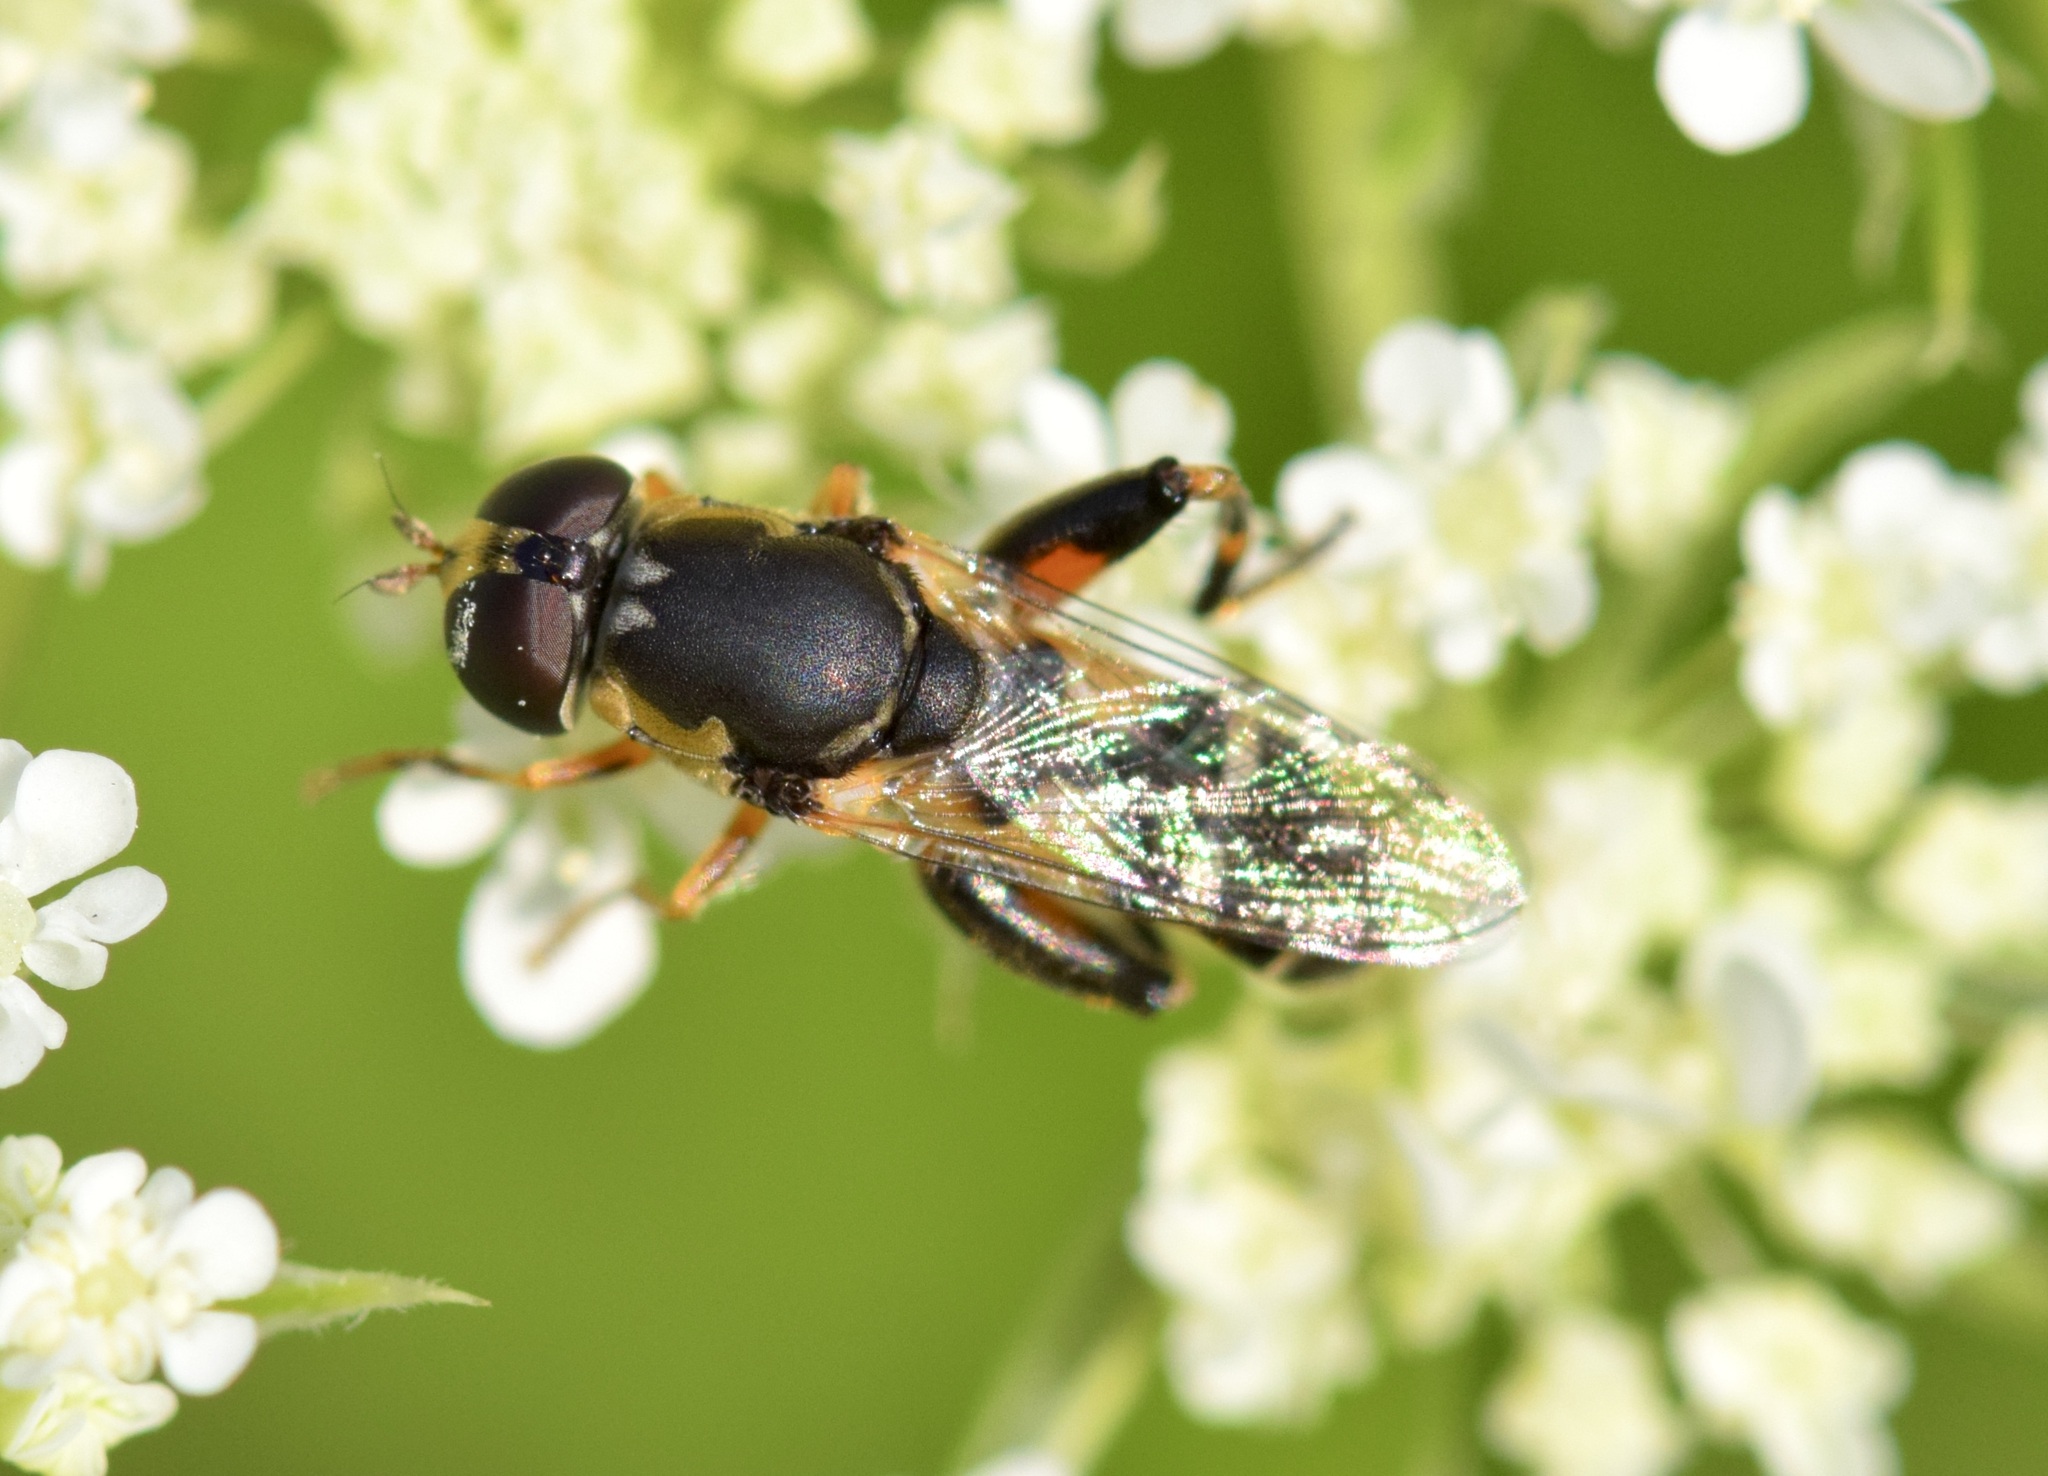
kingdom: Animalia
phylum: Arthropoda
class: Insecta
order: Diptera
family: Syrphidae
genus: Syritta
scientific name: Syritta pipiens
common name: Hover fly
